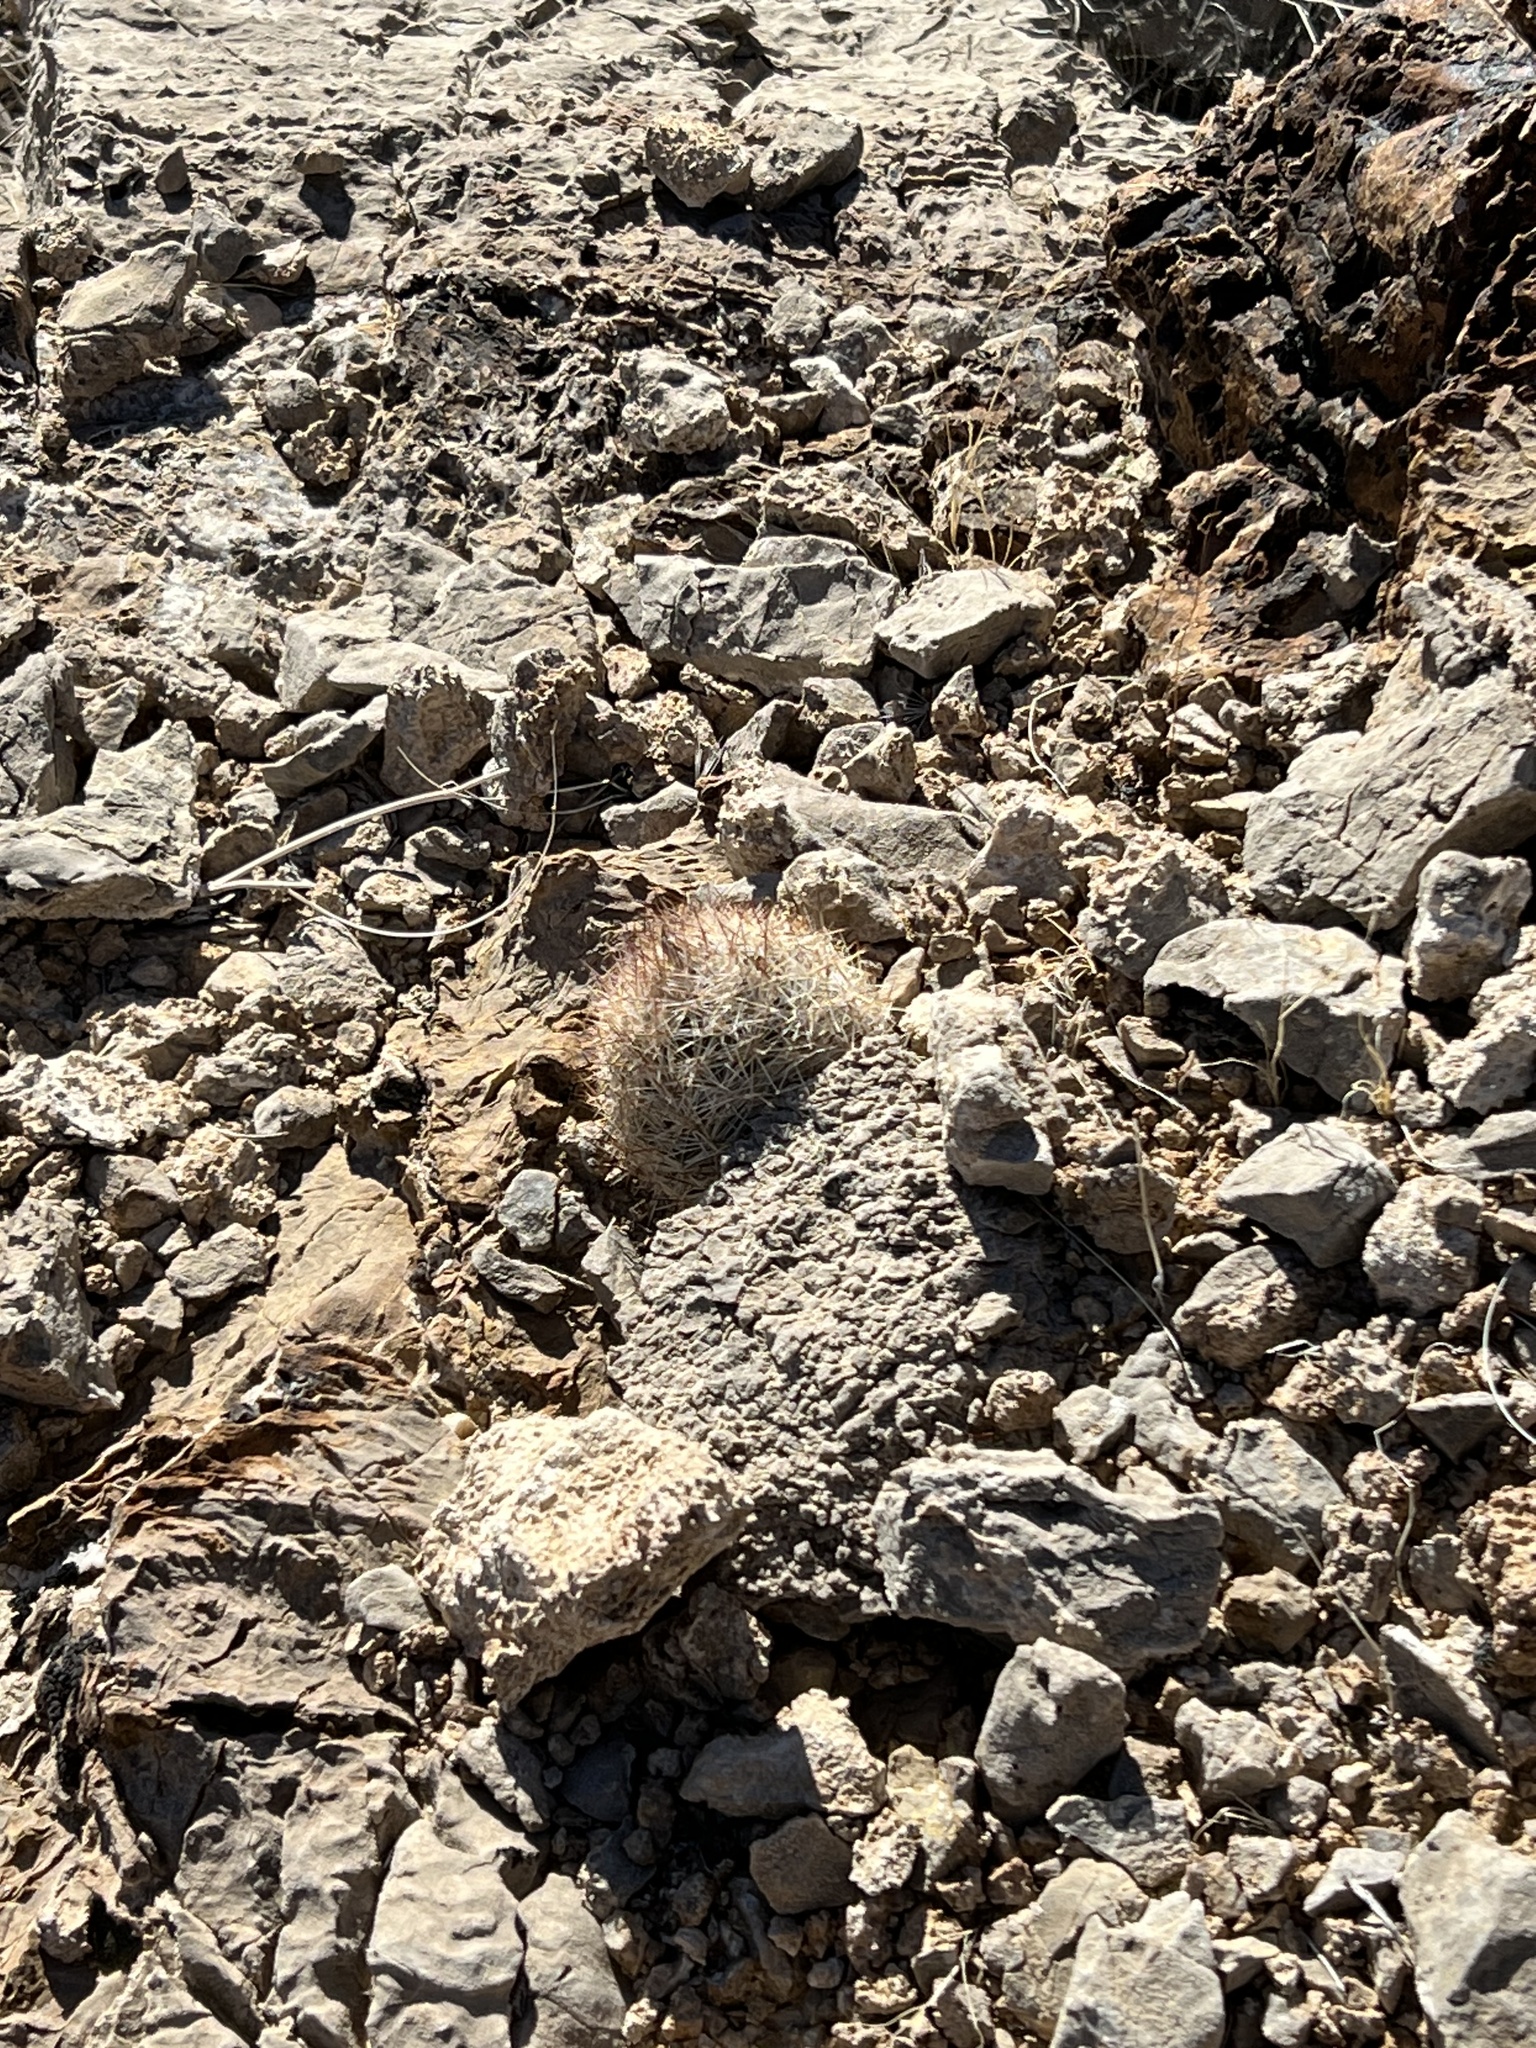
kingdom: Plantae
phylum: Tracheophyta
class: Magnoliopsida
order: Caryophyllales
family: Cactaceae
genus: Pelecyphora
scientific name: Pelecyphora dasyacantha
